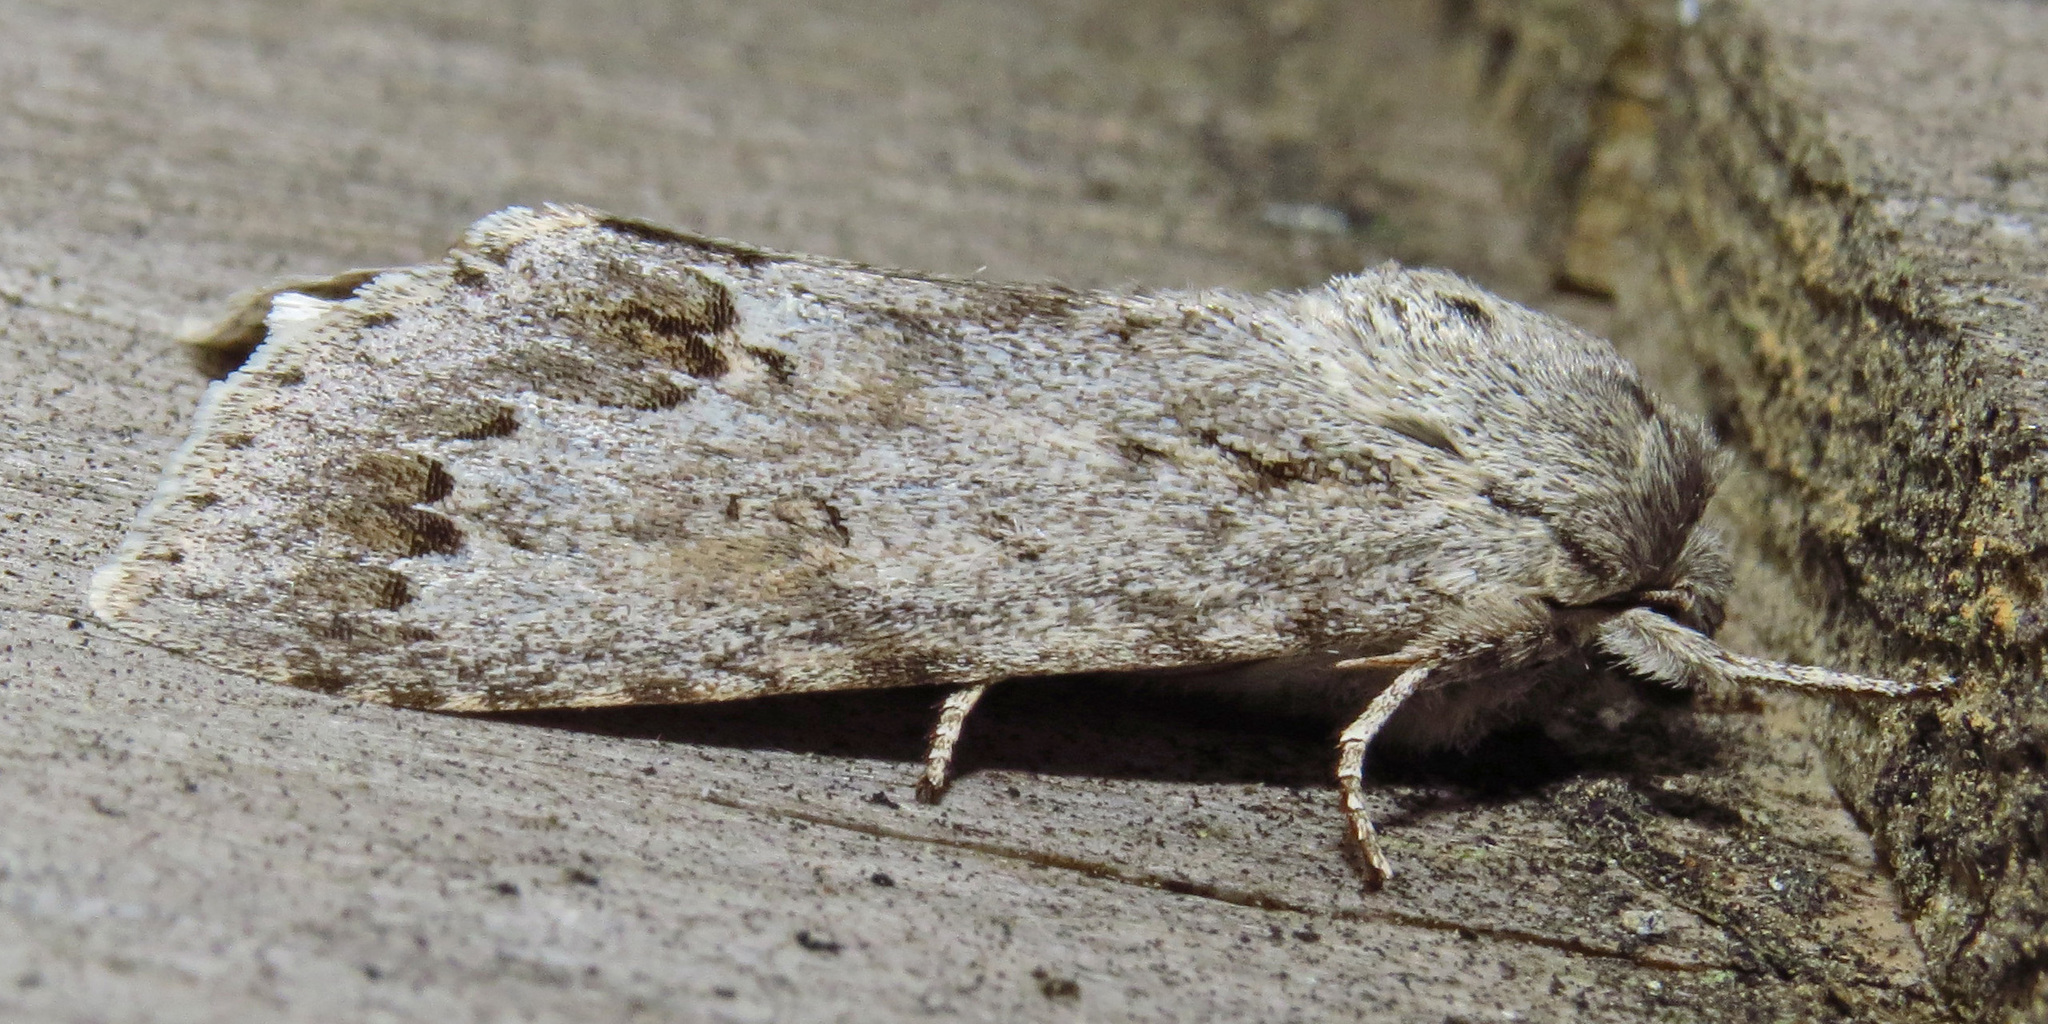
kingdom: Animalia
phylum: Arthropoda
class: Insecta
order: Lepidoptera
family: Noctuidae
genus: Acronicta
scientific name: Acronicta insita
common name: Large gray dagger
